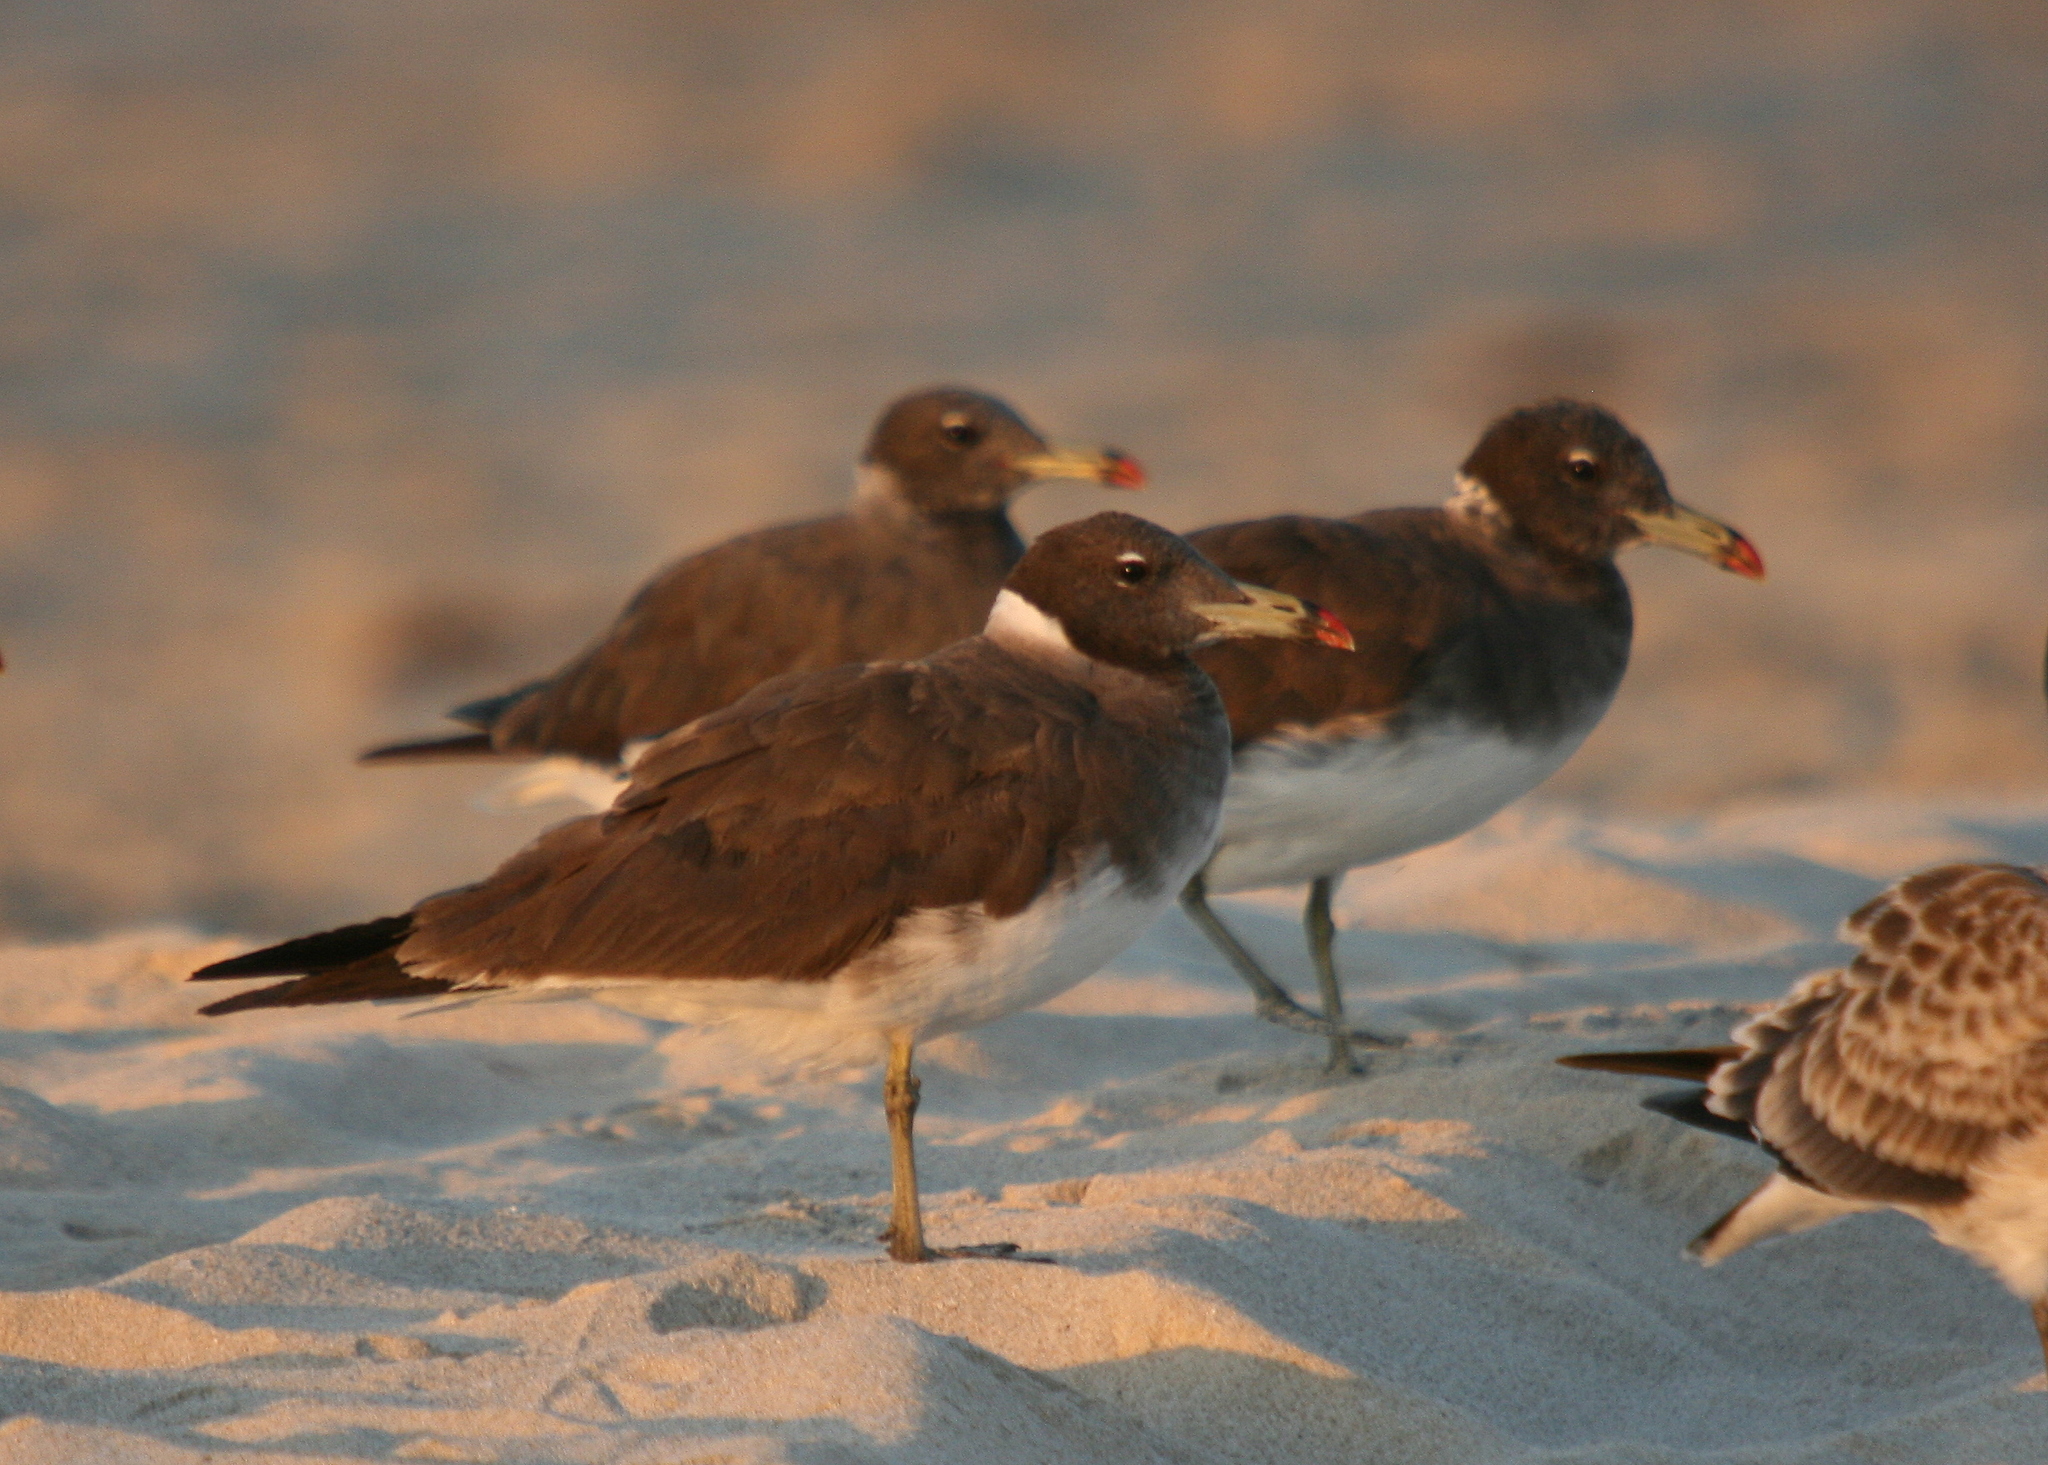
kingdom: Animalia
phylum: Chordata
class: Aves
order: Charadriiformes
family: Laridae
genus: Ichthyaetus
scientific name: Ichthyaetus hemprichii
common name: Sooty gull
